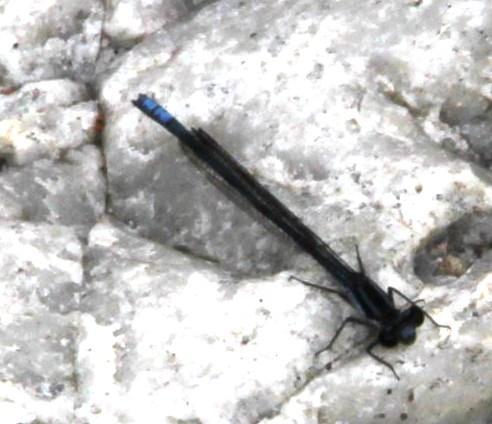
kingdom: Animalia
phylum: Arthropoda
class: Insecta
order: Odonata
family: Coenagrionidae
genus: Pseudagrion
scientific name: Pseudagrion furcigerum
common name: Palmiet sprite
